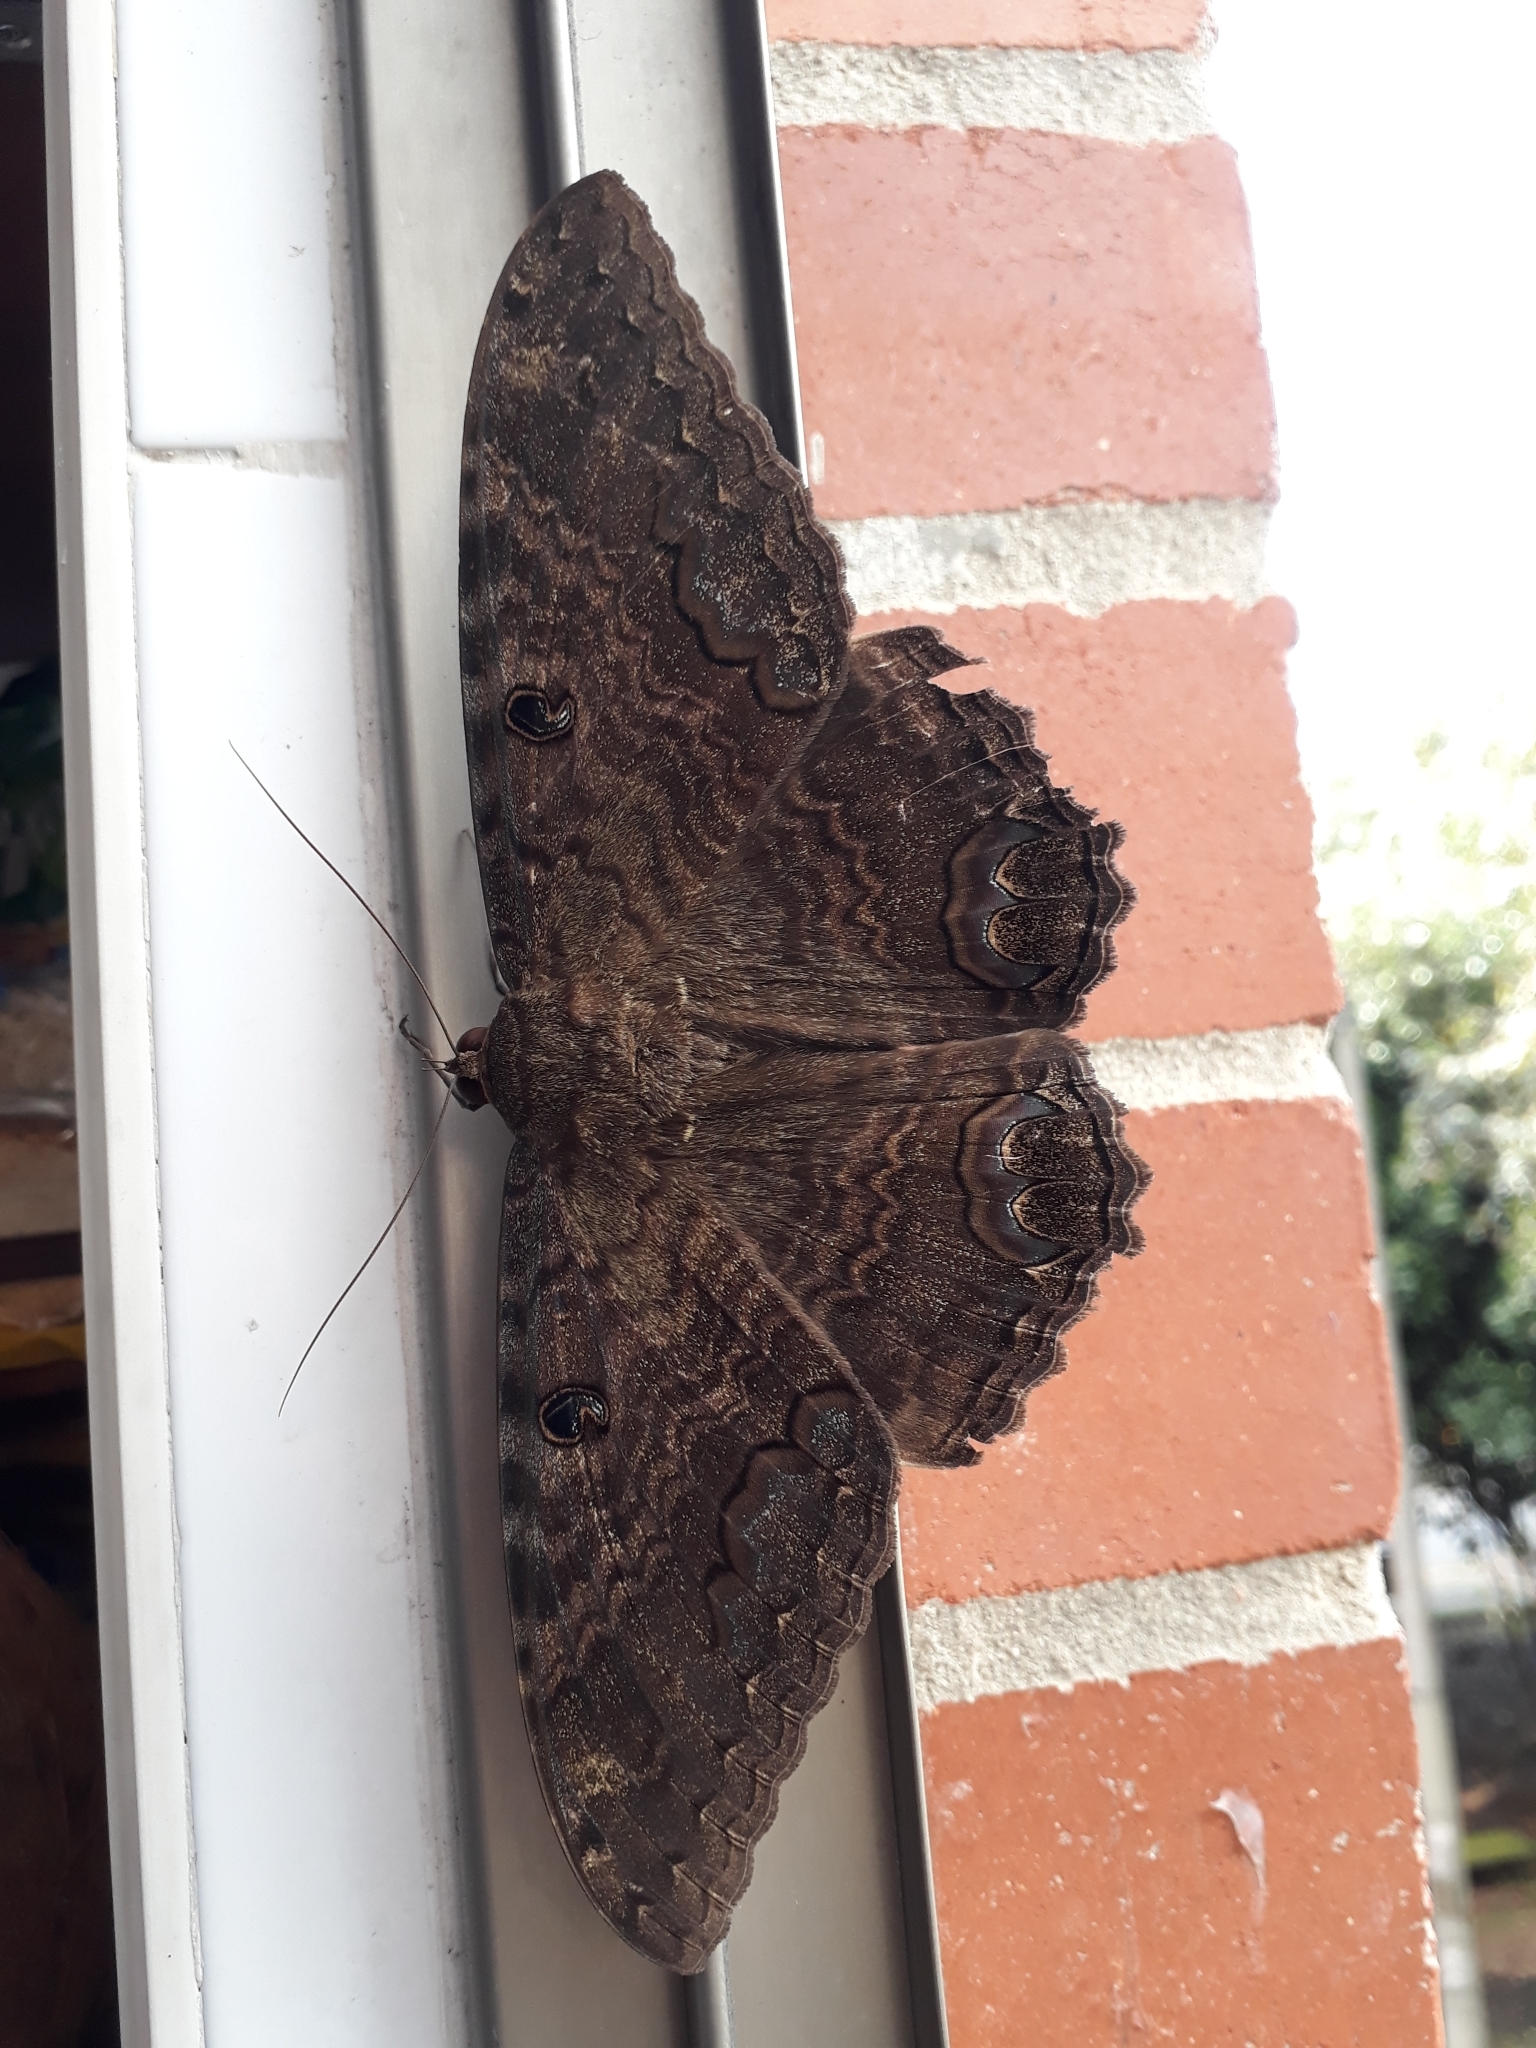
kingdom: Animalia
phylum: Arthropoda
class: Insecta
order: Lepidoptera
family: Erebidae
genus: Ascalapha
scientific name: Ascalapha odorata
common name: Black witch
